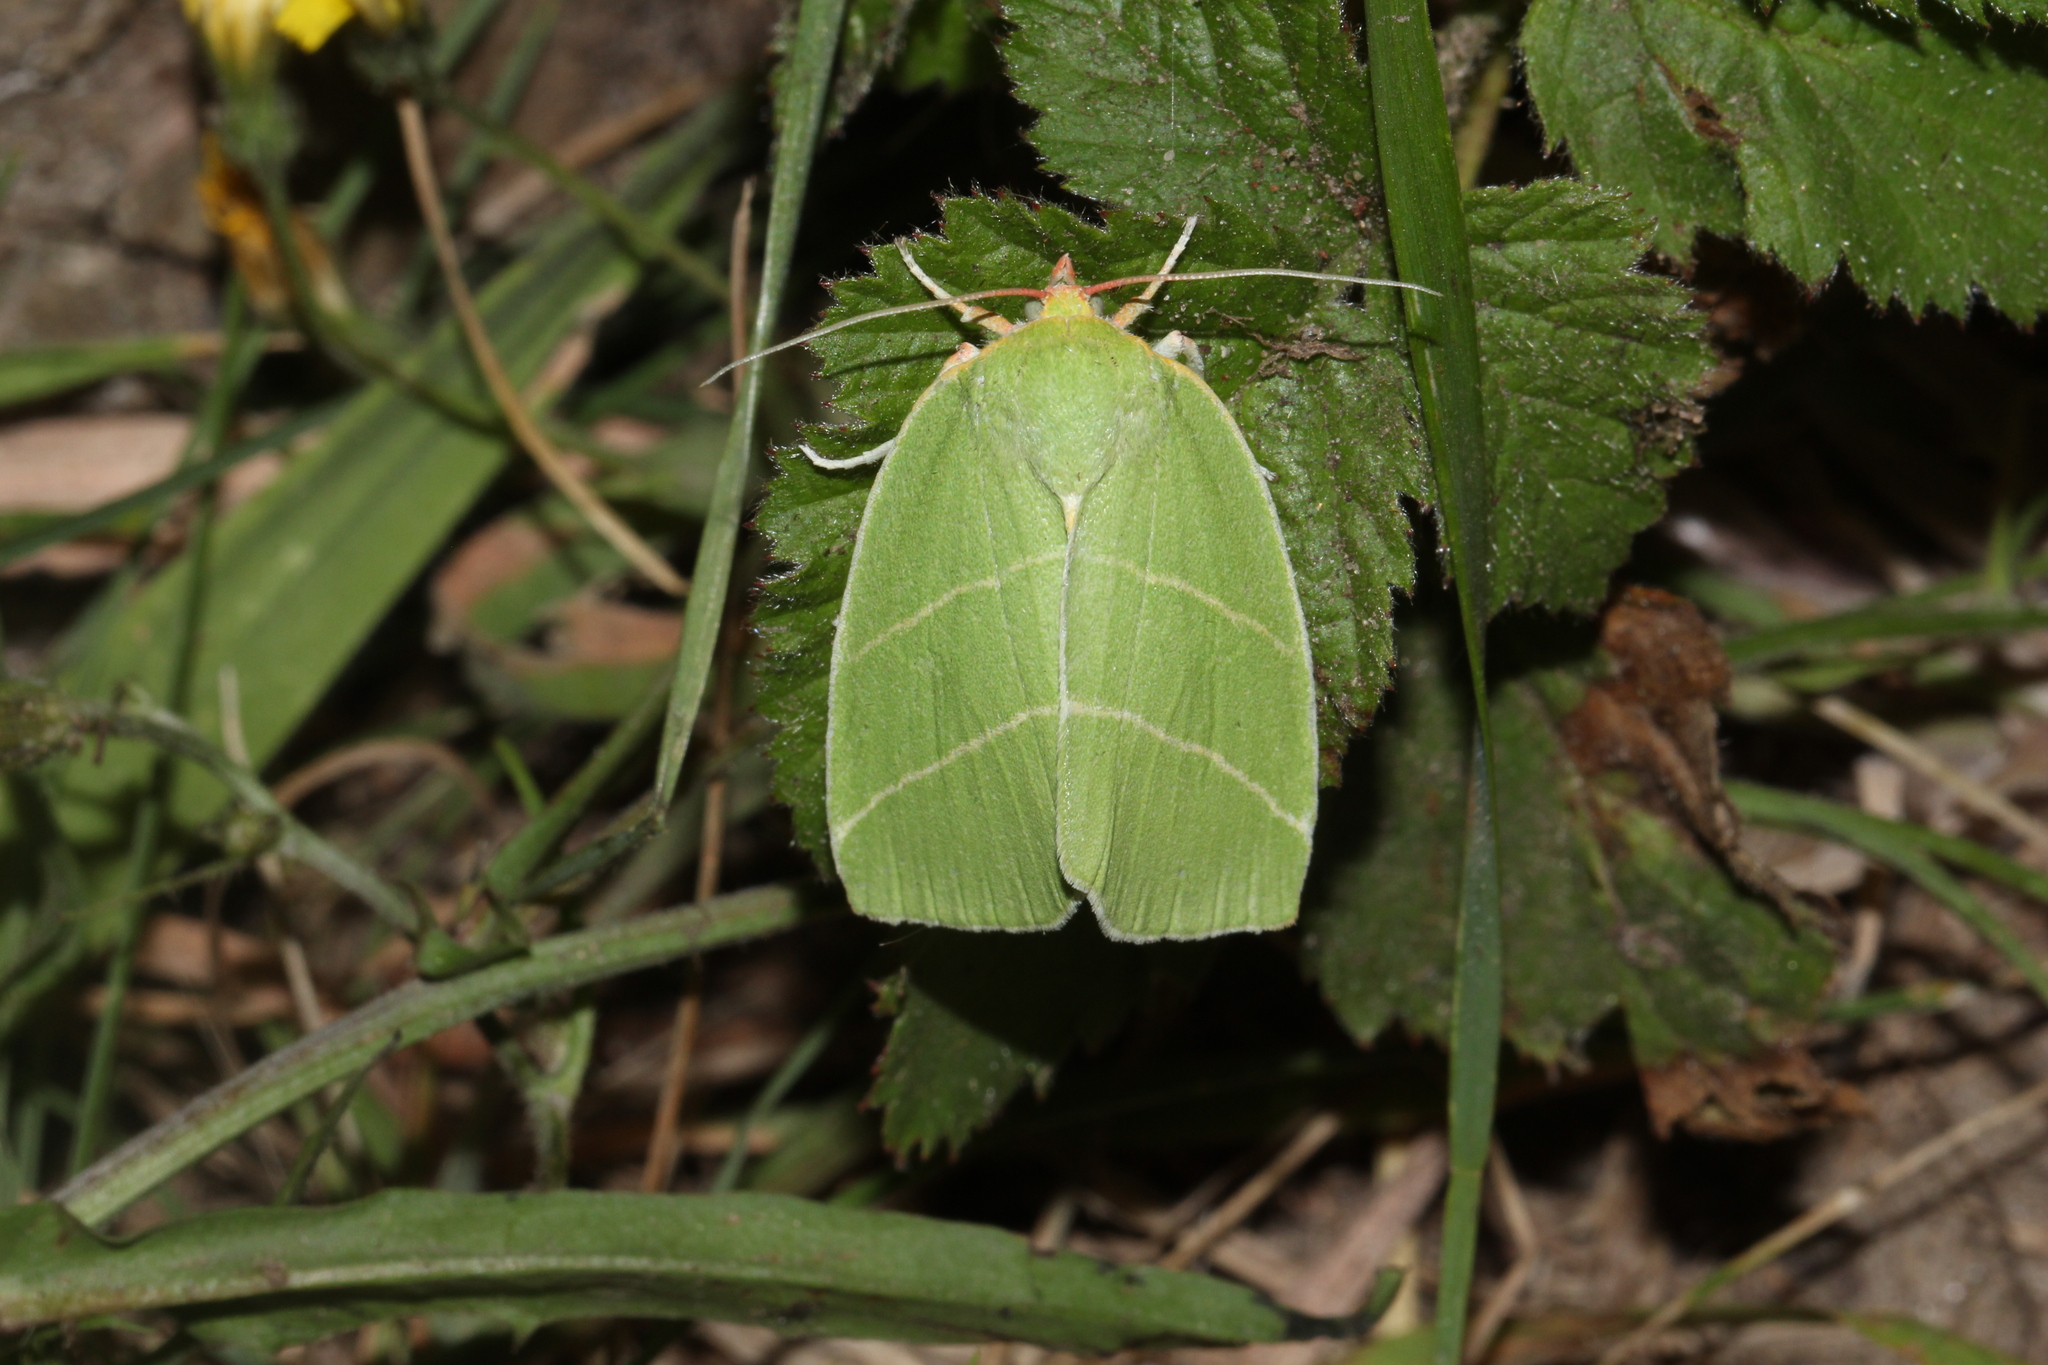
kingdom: Animalia
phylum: Arthropoda
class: Insecta
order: Lepidoptera
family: Nolidae
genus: Bena
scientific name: Bena bicolorana
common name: Scarce silver-lines
